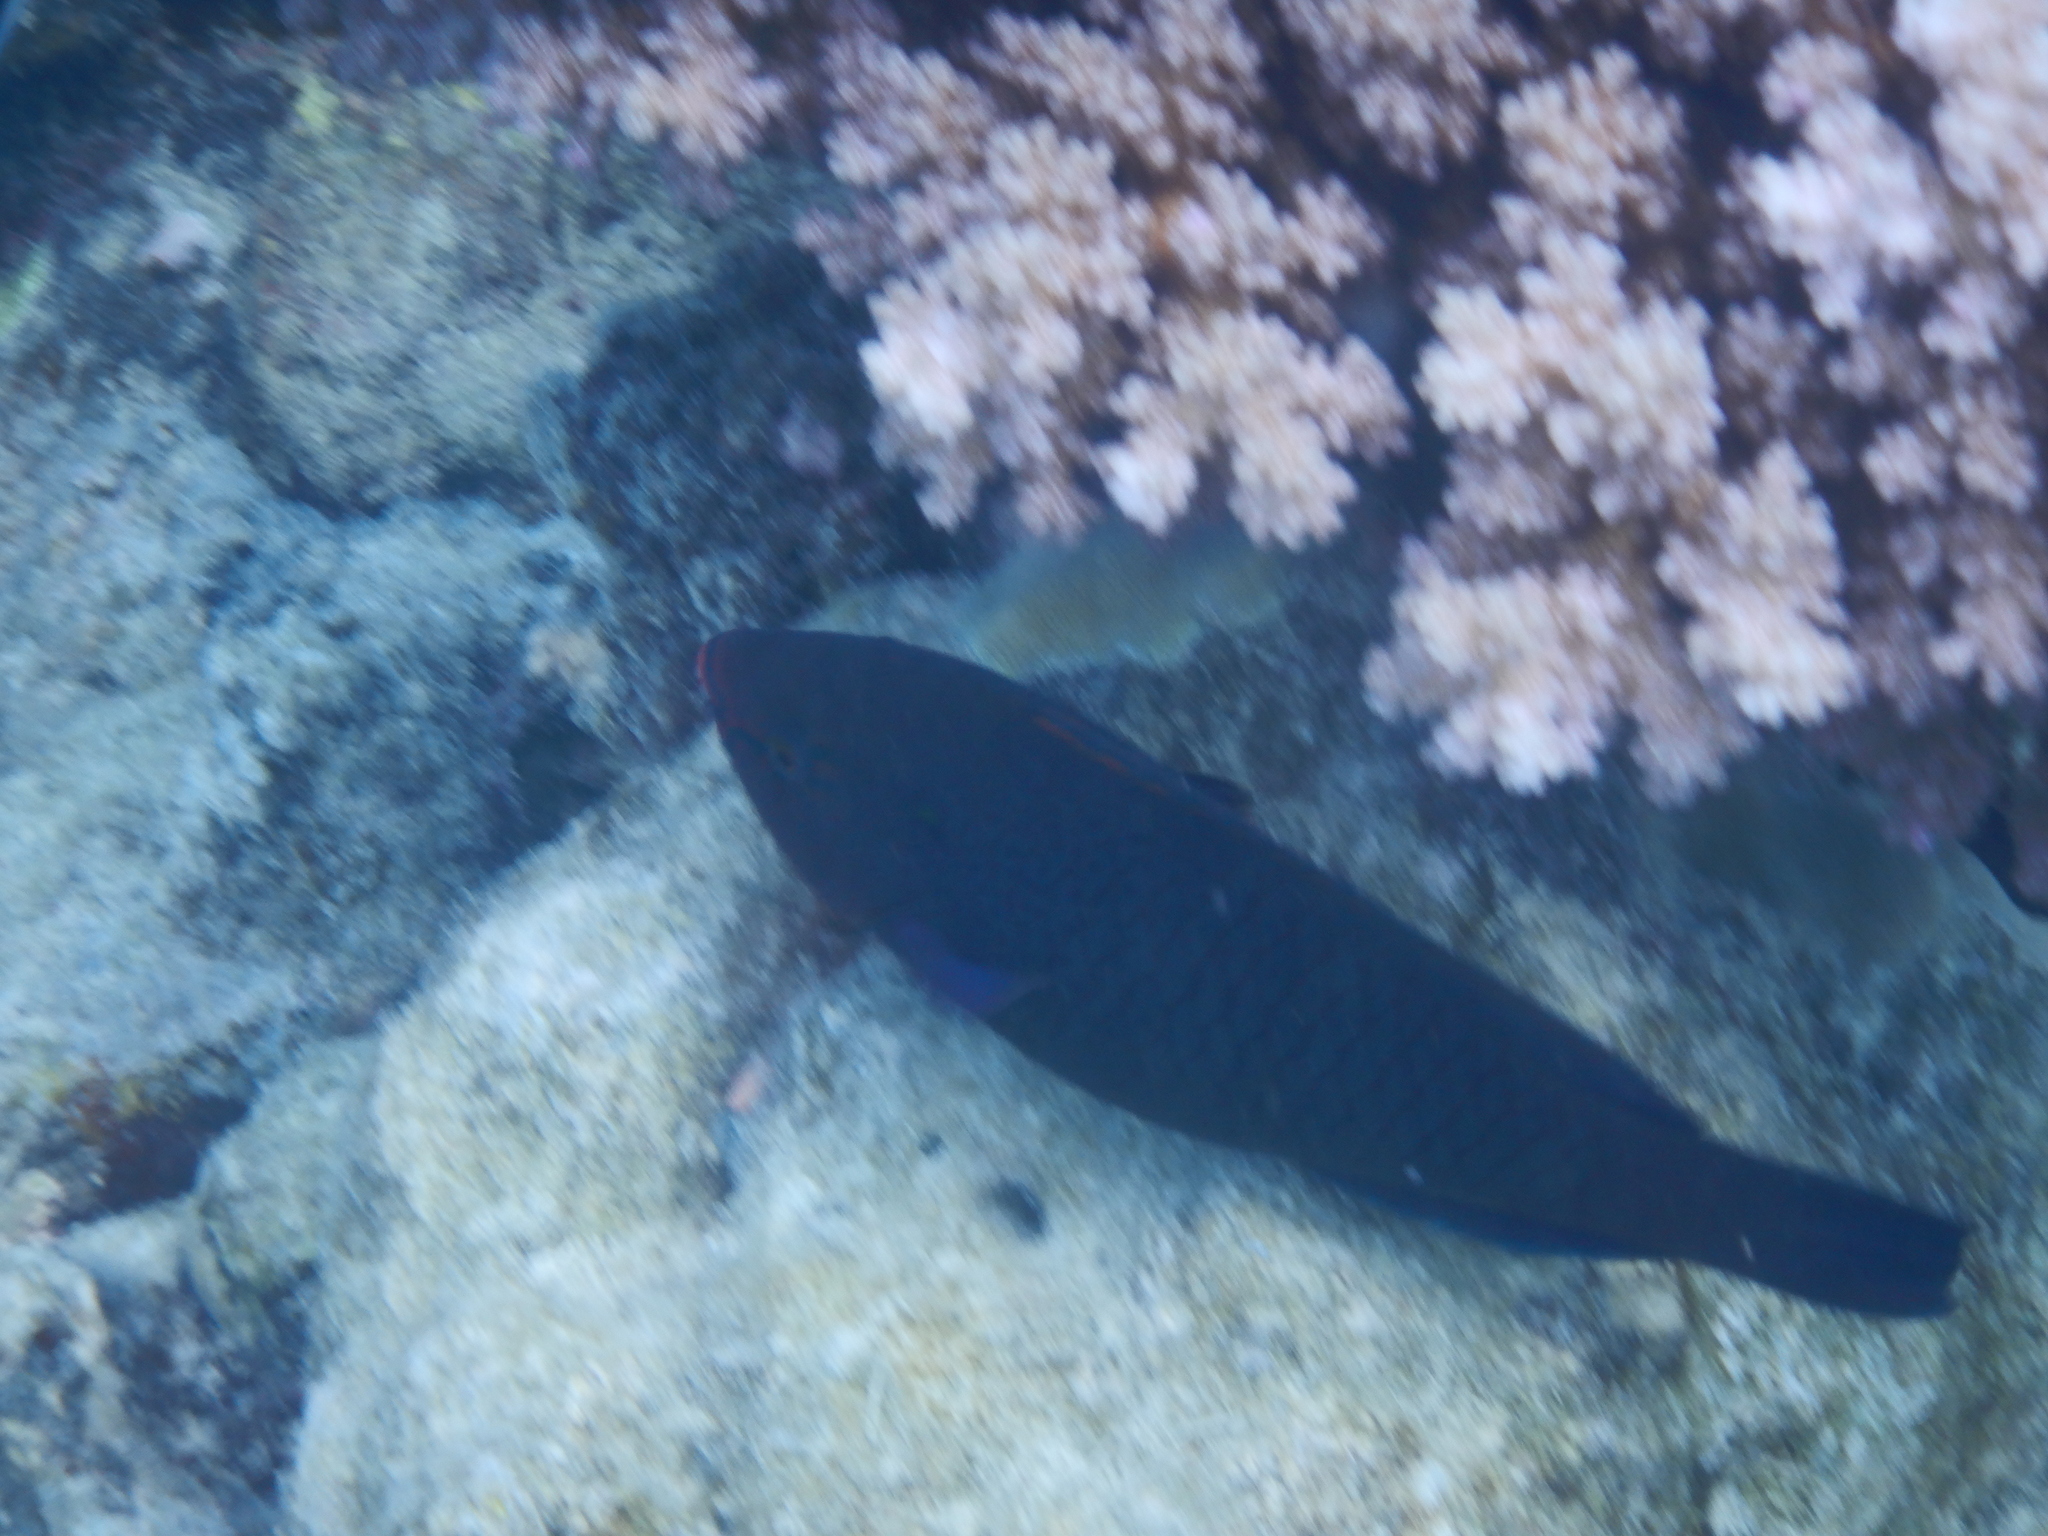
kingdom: Animalia
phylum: Chordata
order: Perciformes
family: Scaridae
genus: Scarus
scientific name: Scarus niger
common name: Dusky parrotfish
